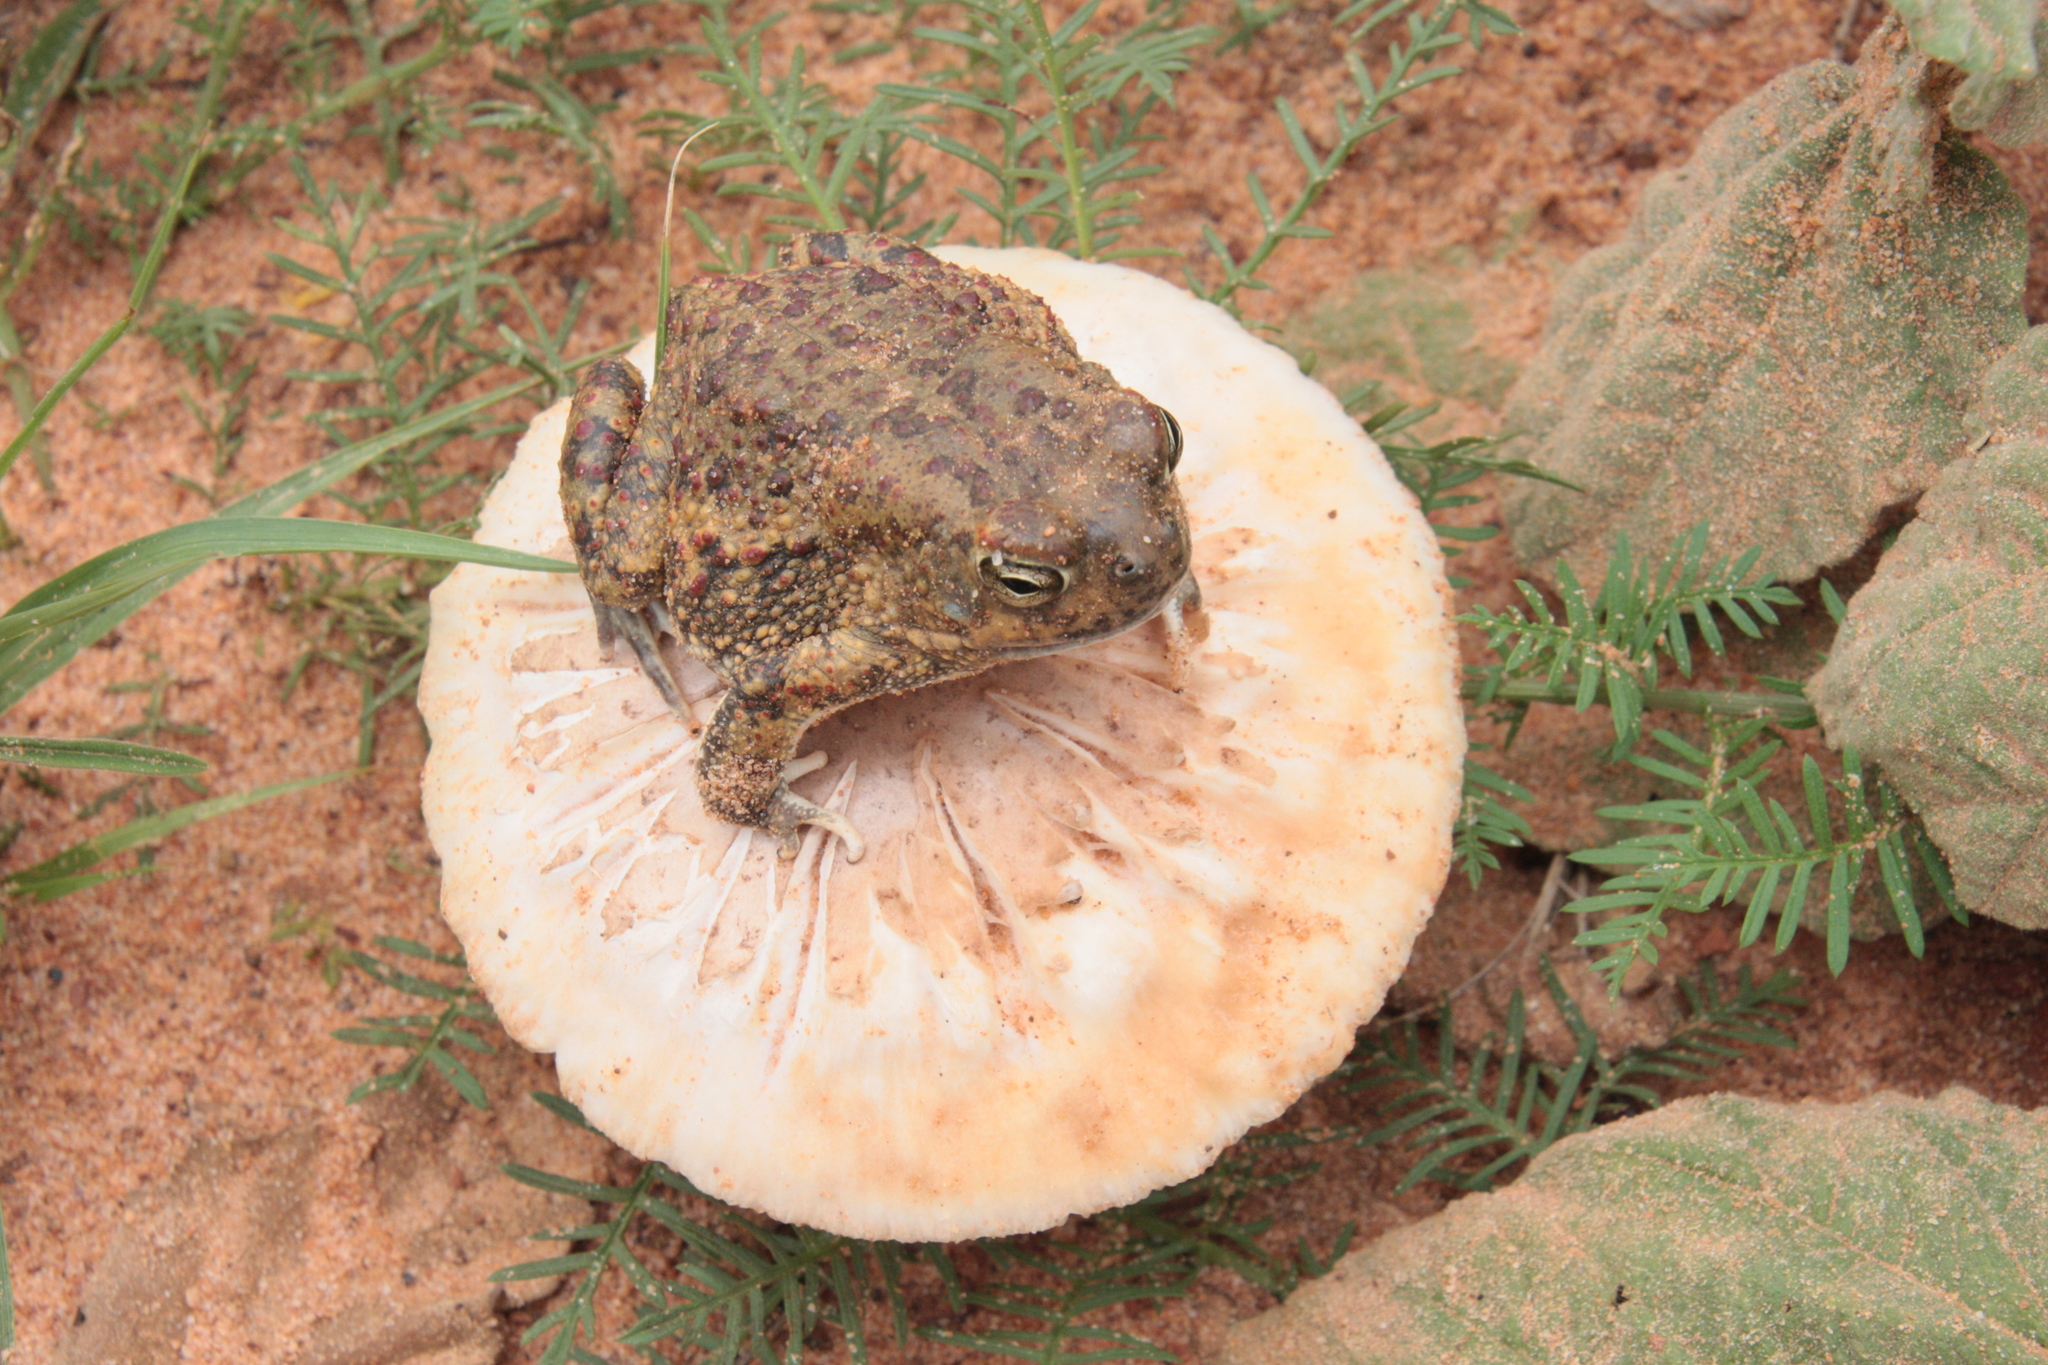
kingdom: Animalia
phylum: Chordata
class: Amphibia
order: Anura
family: Bufonidae
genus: Sclerophrys
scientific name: Sclerophrys pentoni
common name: Penton's toad
